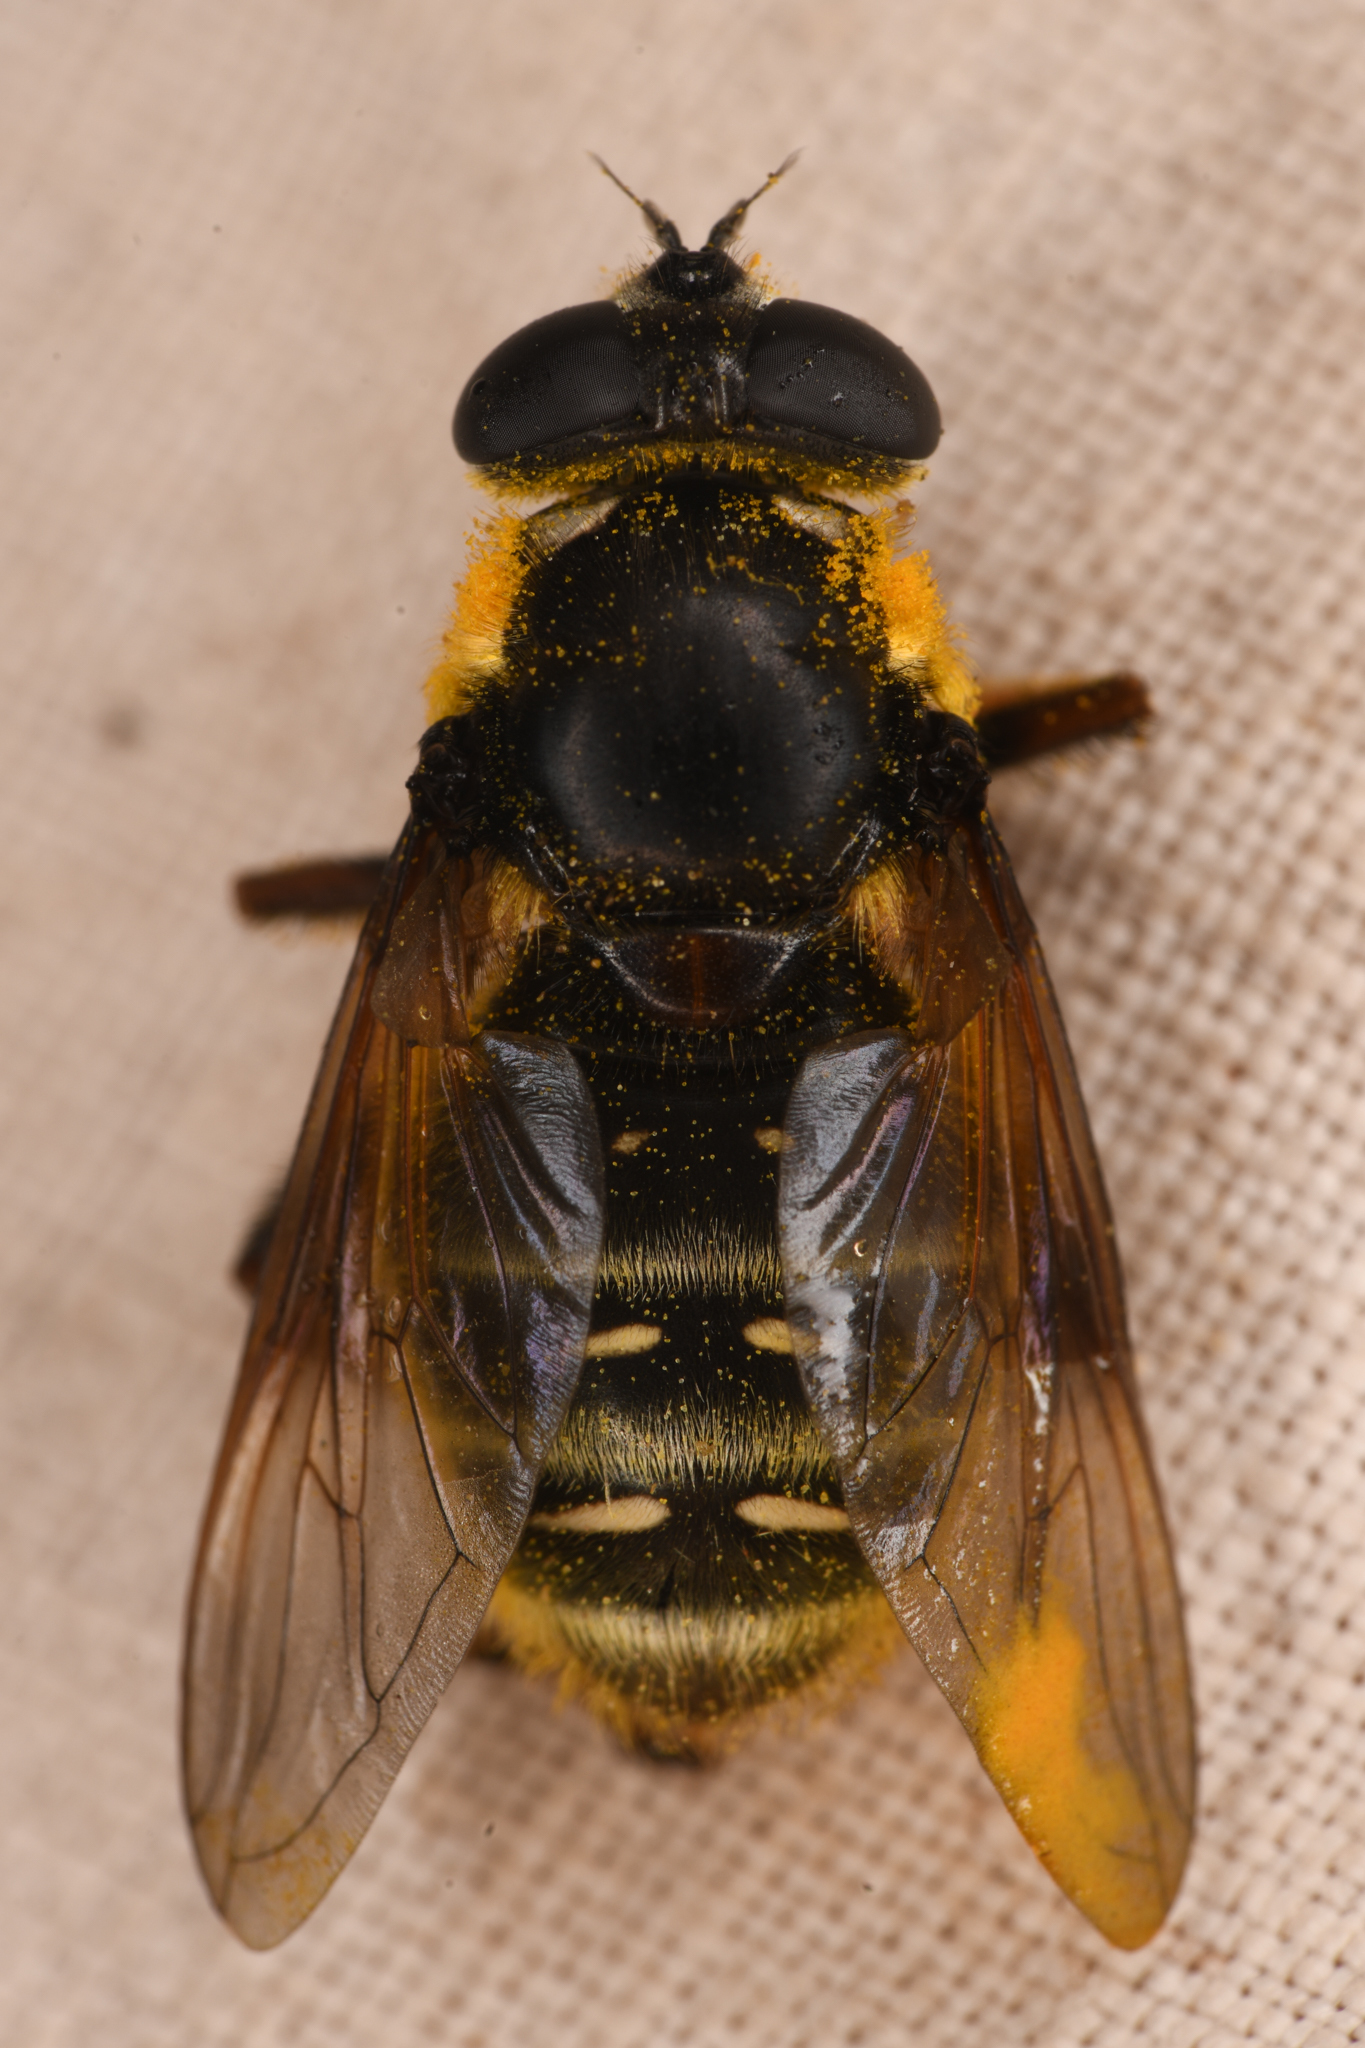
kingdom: Animalia
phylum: Arthropoda
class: Insecta
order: Diptera
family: Syrphidae
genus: Sericomyia
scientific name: Sericomyia militaris
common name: Narrow-banded pond fly
